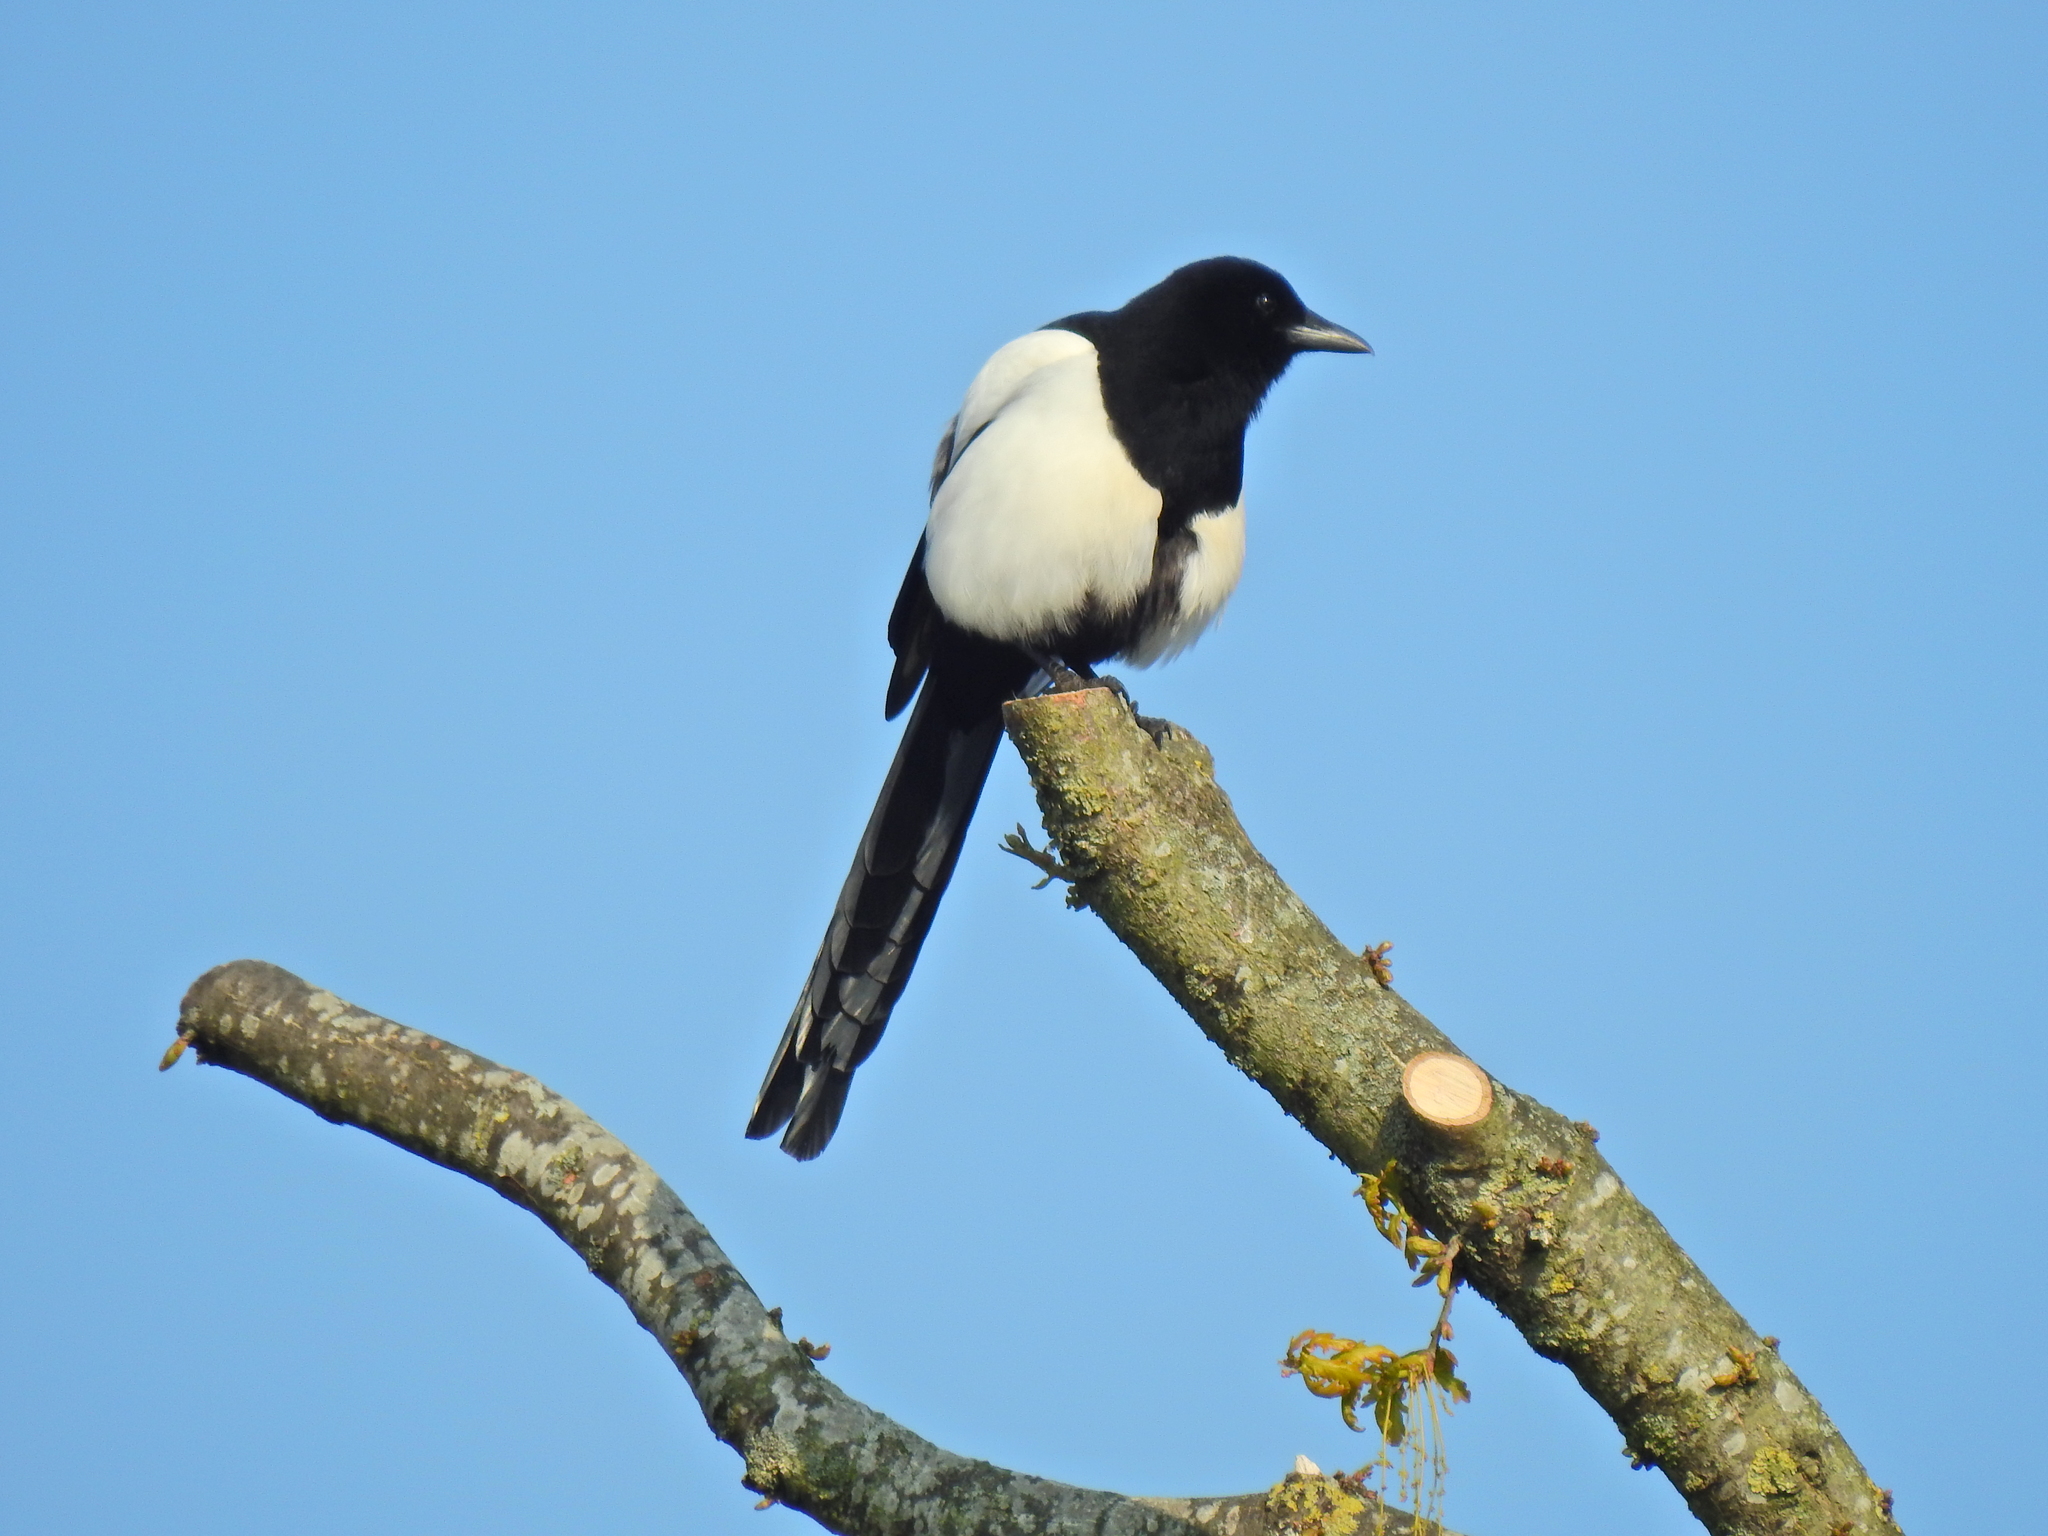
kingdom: Animalia
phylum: Chordata
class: Aves
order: Passeriformes
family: Corvidae
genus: Pica
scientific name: Pica pica
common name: Eurasian magpie
